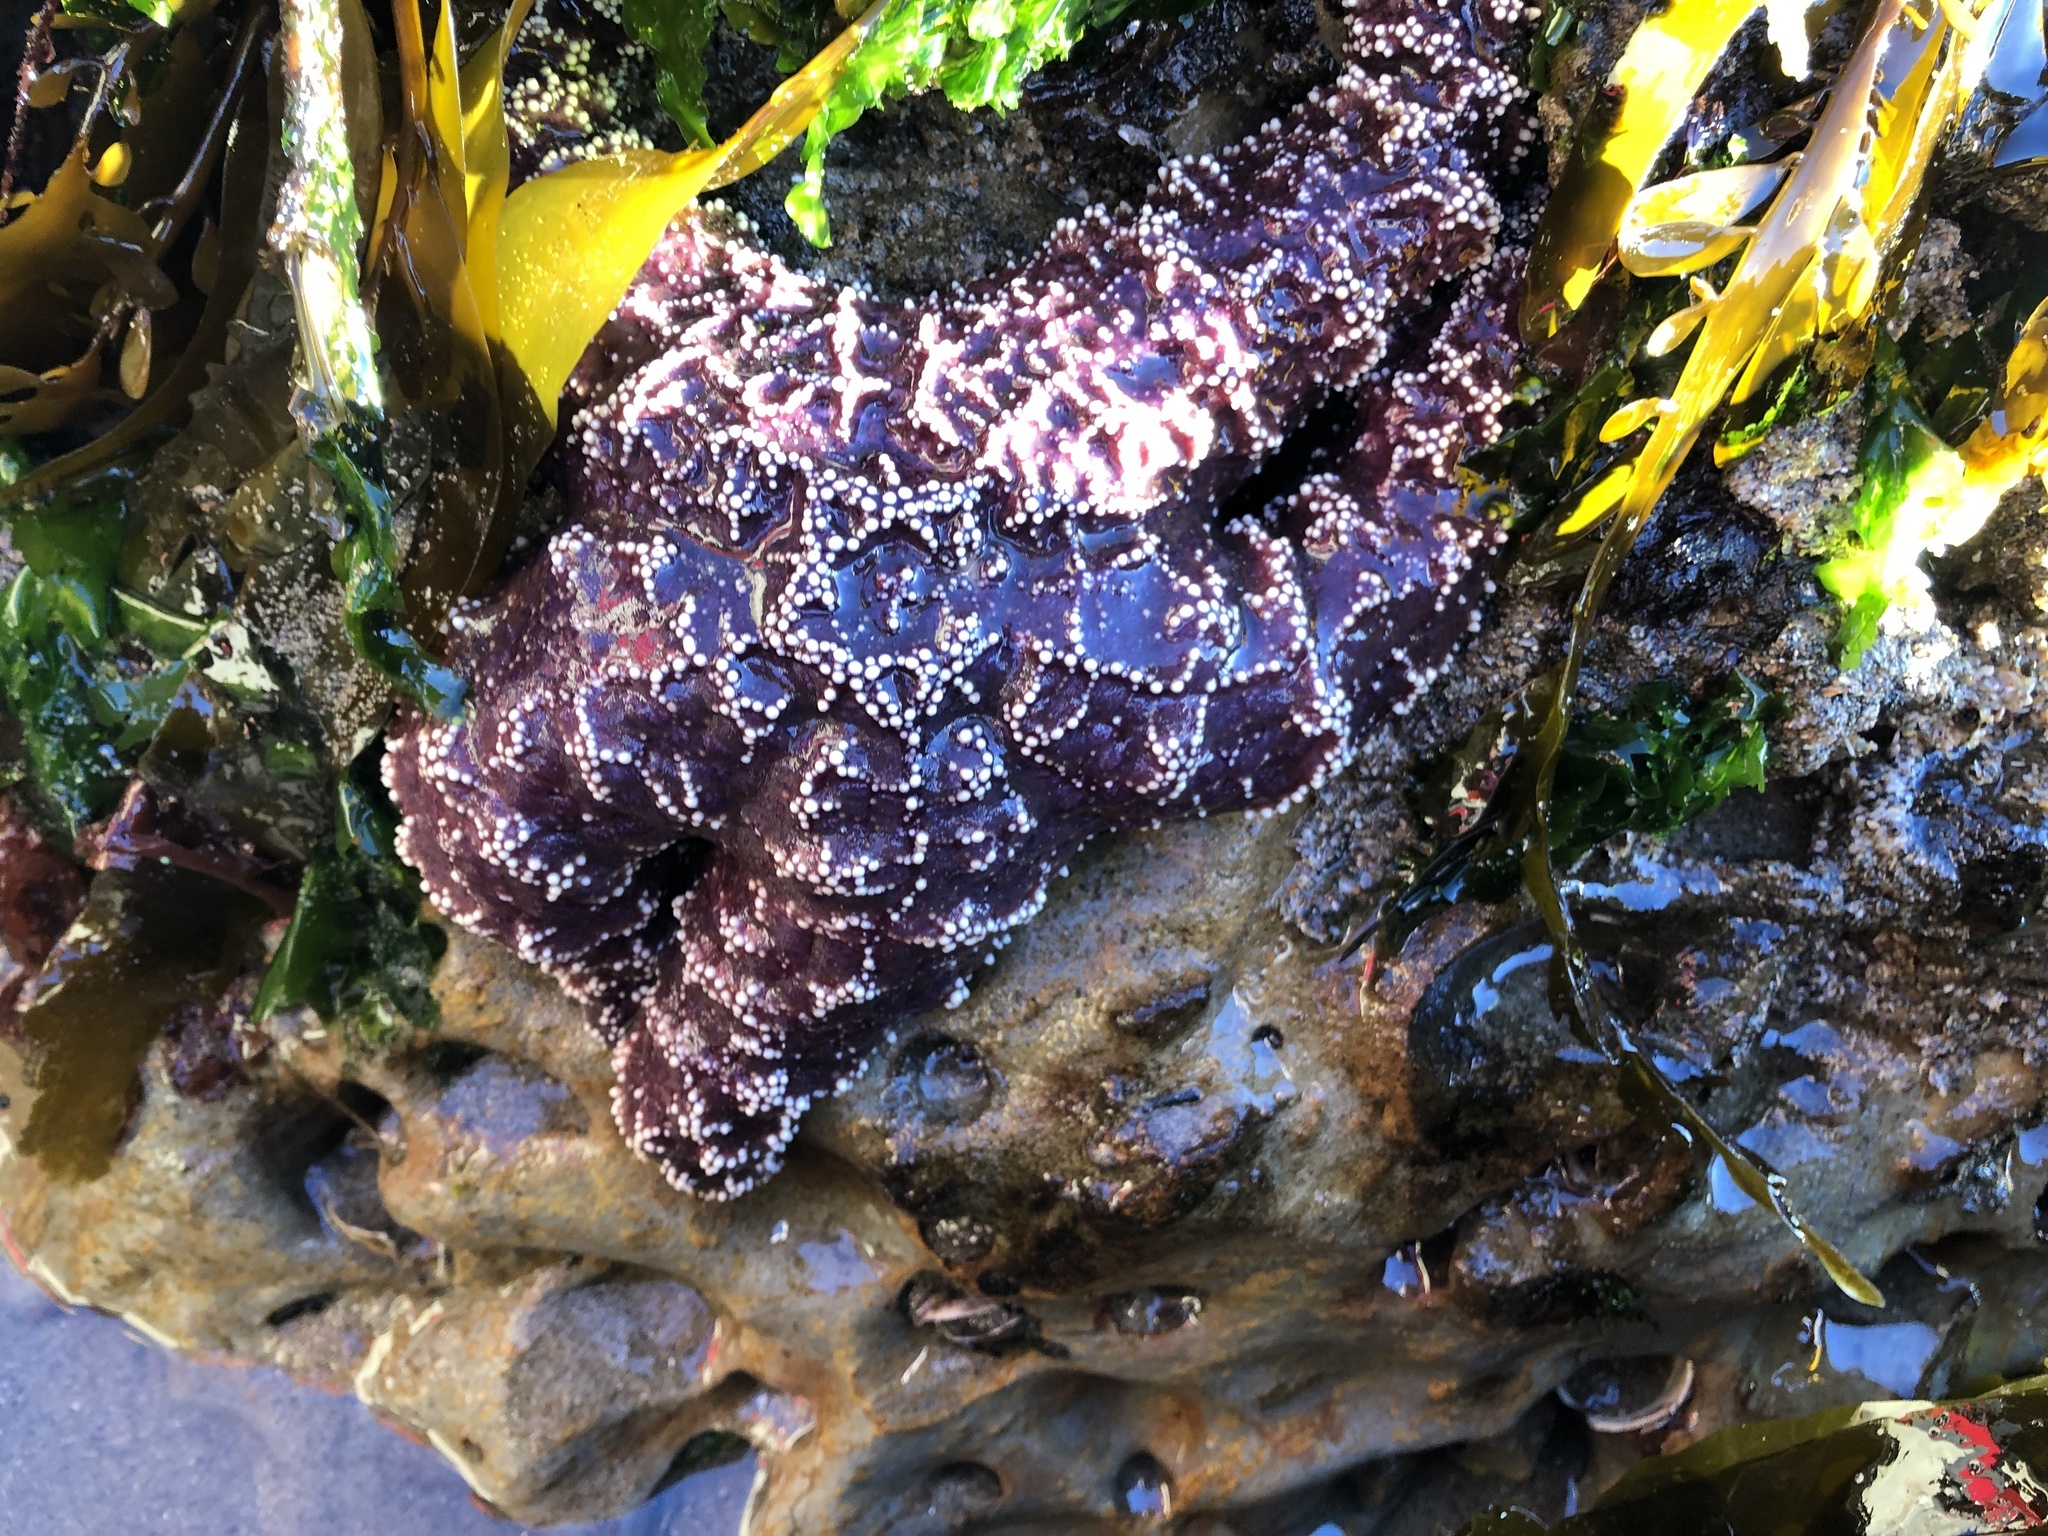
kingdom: Animalia
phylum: Echinodermata
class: Asteroidea
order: Forcipulatida
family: Asteriidae
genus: Pisaster
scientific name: Pisaster ochraceus
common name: Ochre stars
